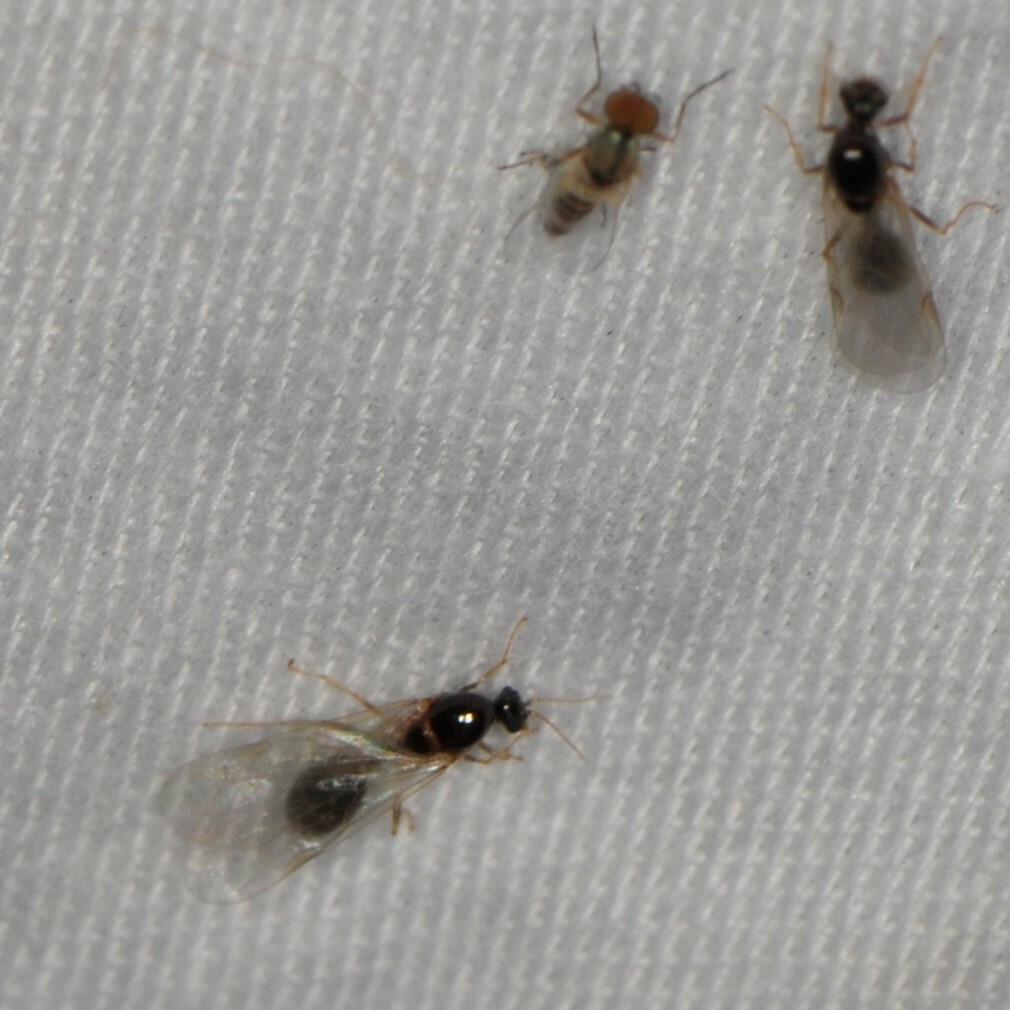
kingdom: Animalia
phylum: Arthropoda
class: Insecta
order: Hymenoptera
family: Formicidae
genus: Pheidole
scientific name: Pheidole
